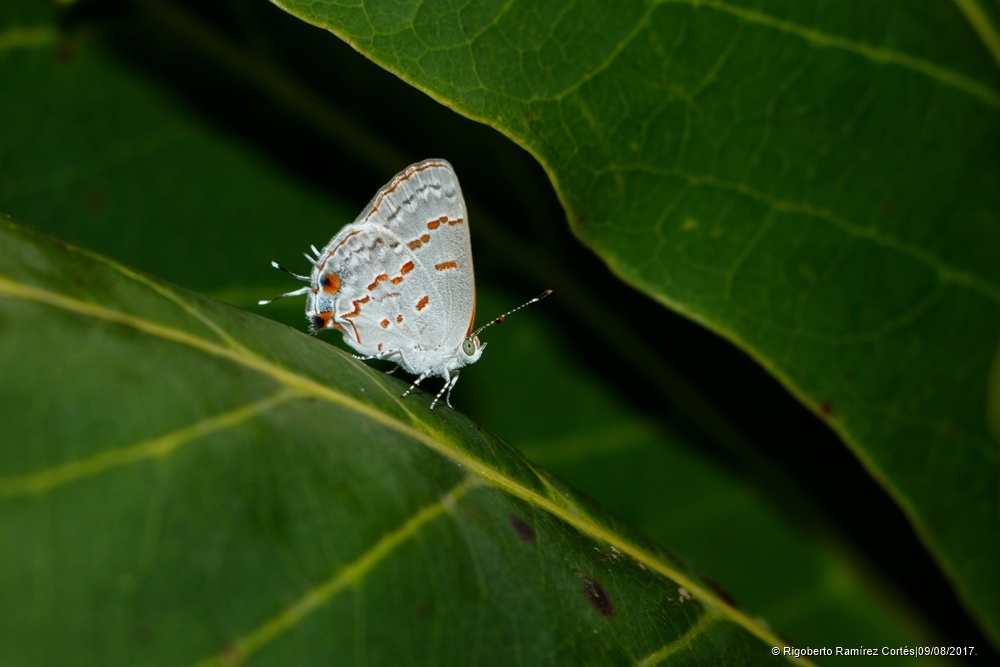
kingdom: Animalia
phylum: Arthropoda
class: Insecta
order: Lepidoptera
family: Lycaenidae
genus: Ministrymon
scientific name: Ministrymon clytie
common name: Clytie ministreak
